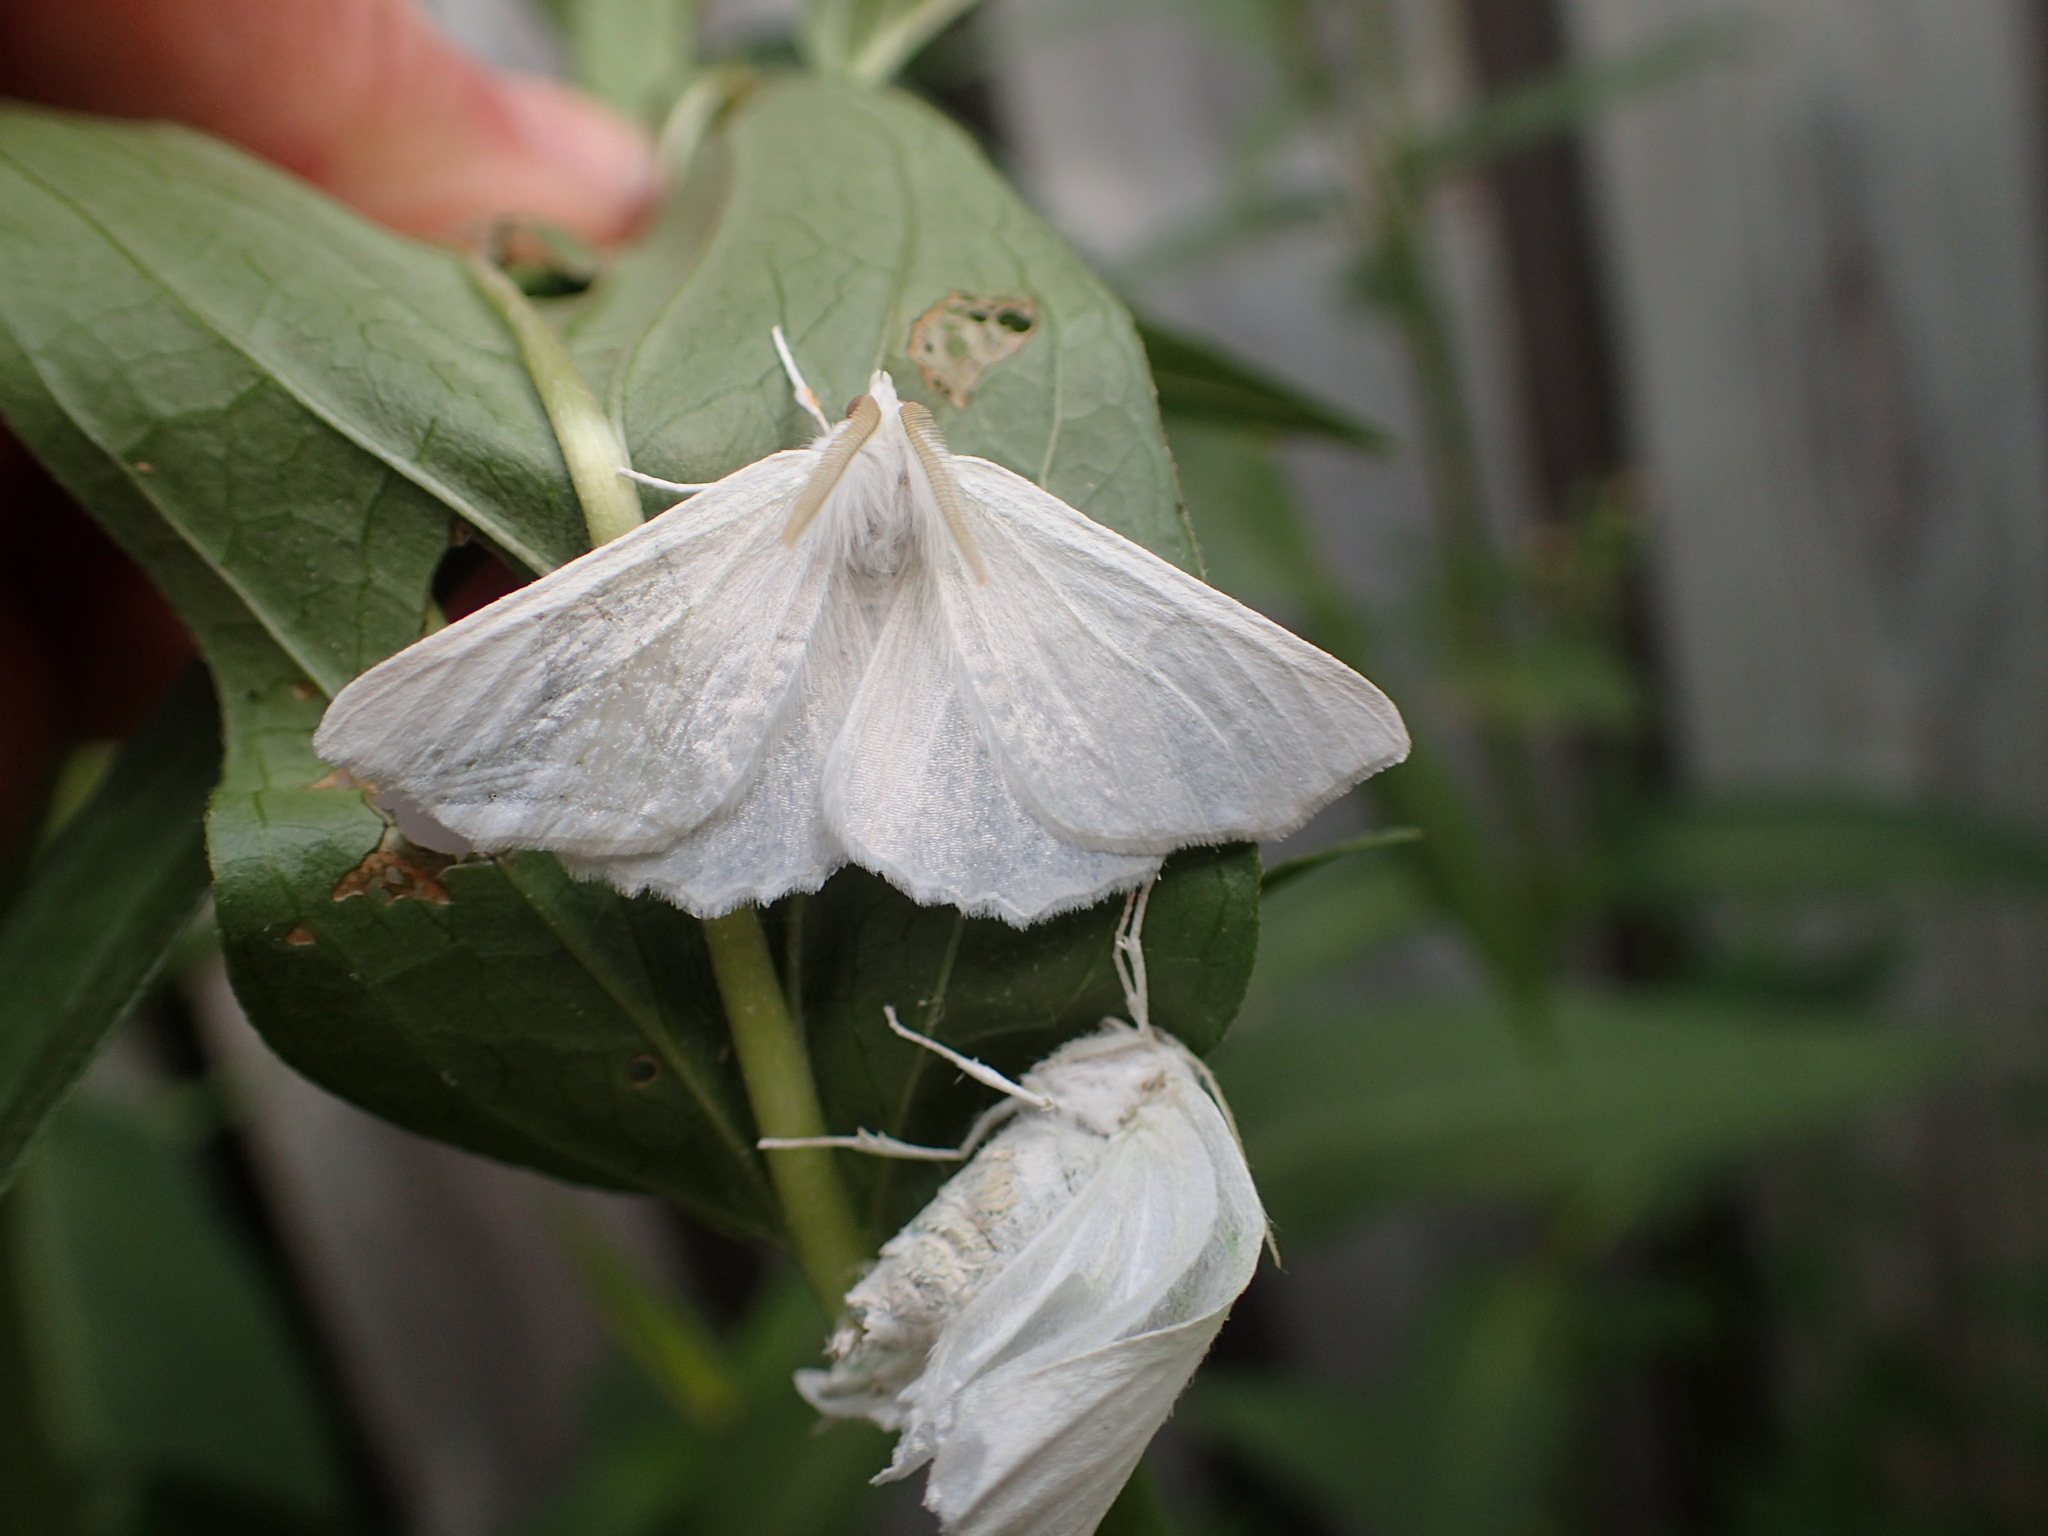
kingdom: Animalia
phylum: Arthropoda
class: Insecta
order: Lepidoptera
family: Geometridae
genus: Ennomos
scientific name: Ennomos subsignaria
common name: Elm spanworm
